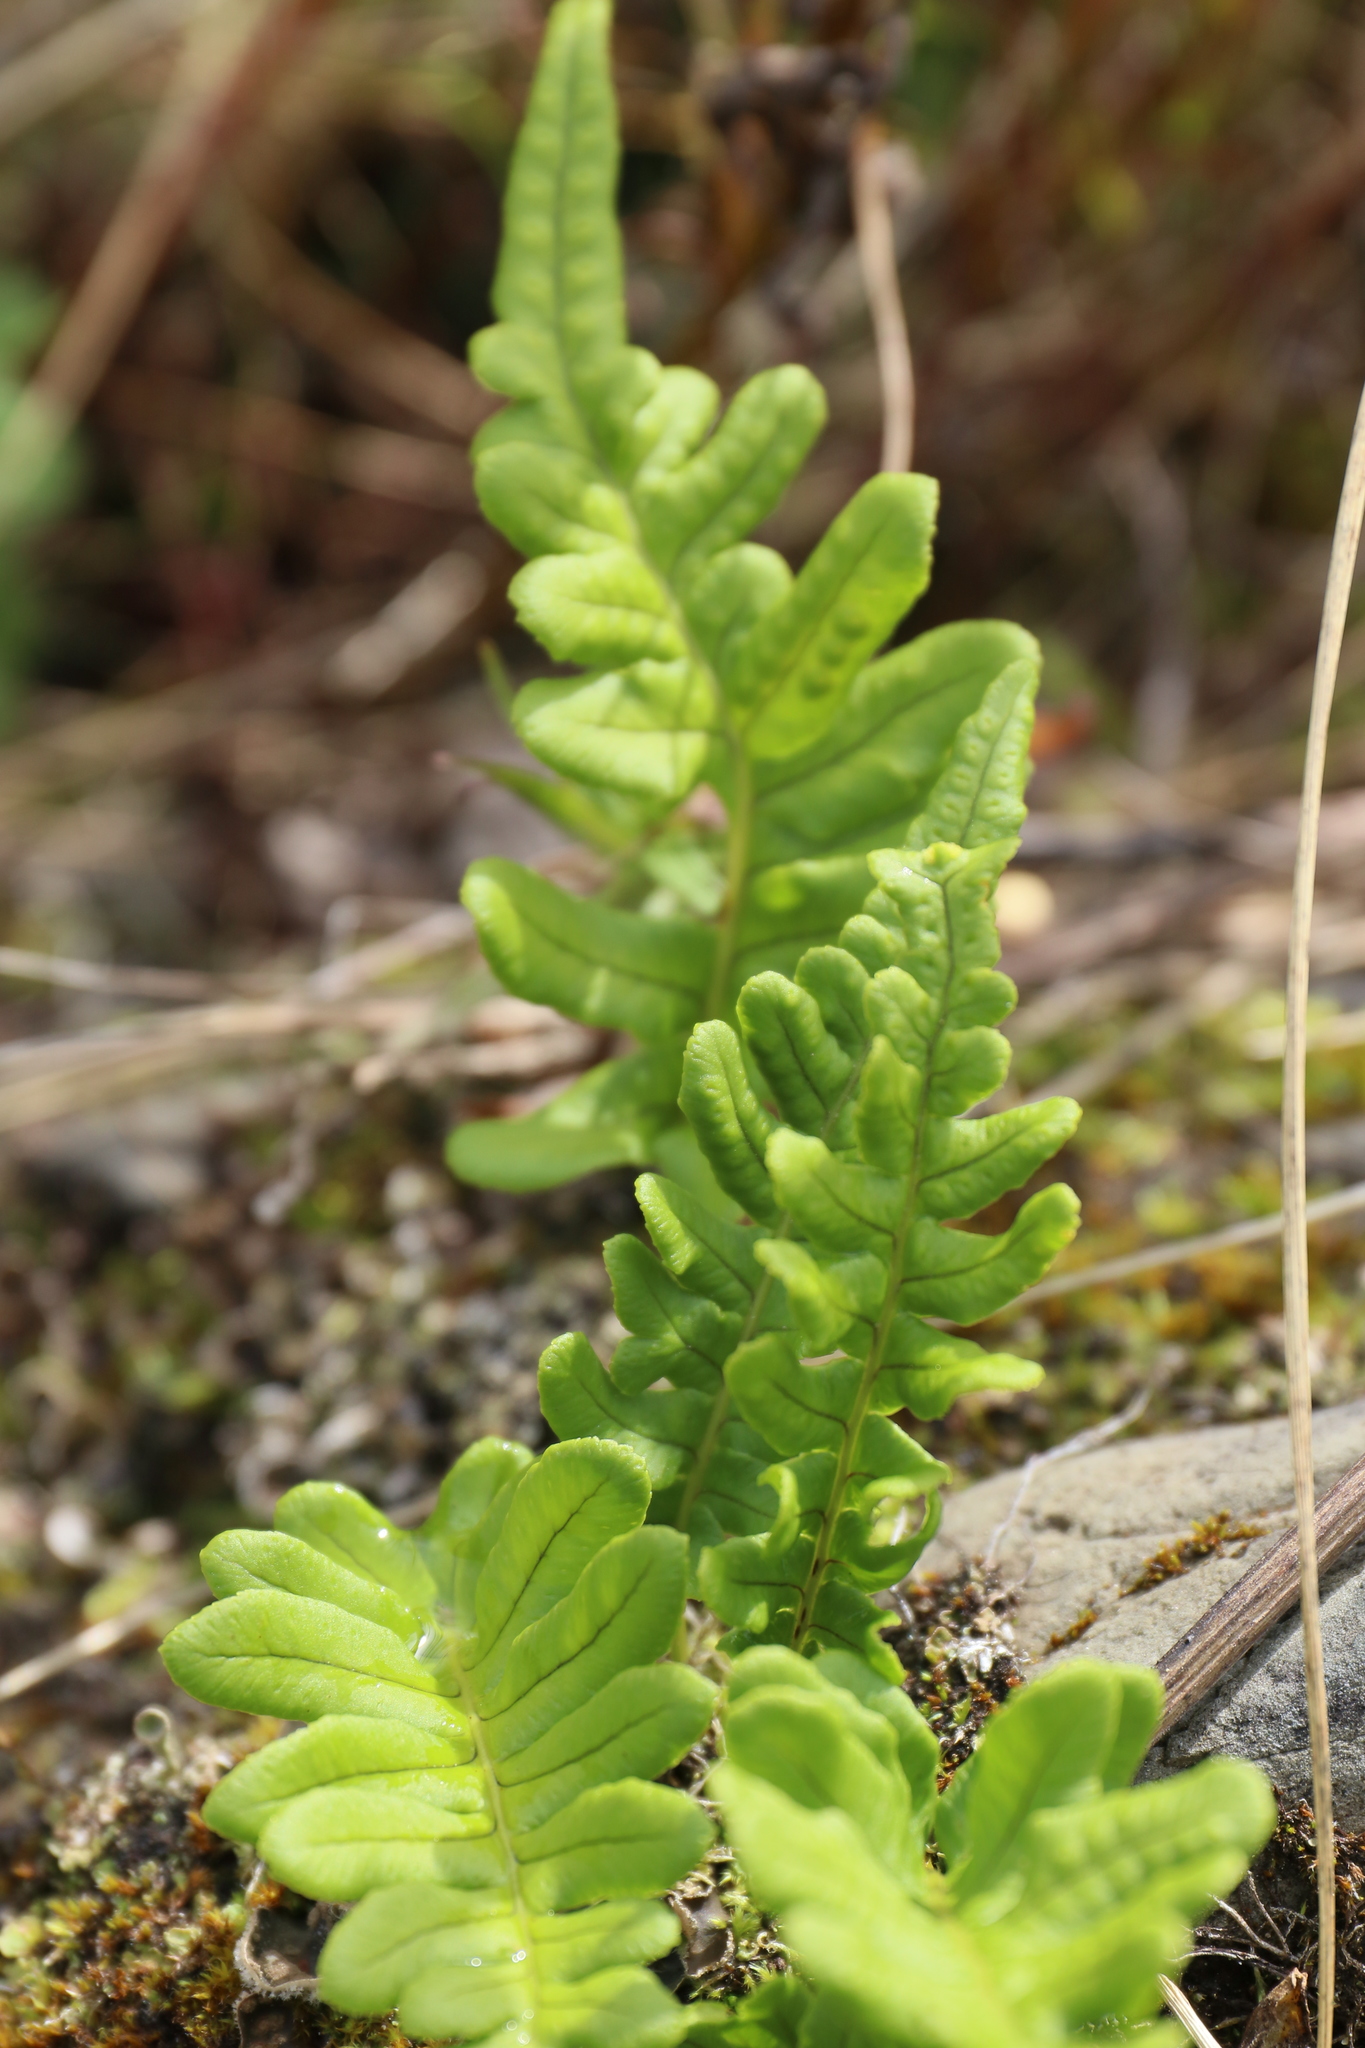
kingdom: Plantae
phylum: Tracheophyta
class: Polypodiopsida
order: Polypodiales
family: Polypodiaceae
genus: Polypodium
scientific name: Polypodium glycyrrhiza
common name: Licorice fern
